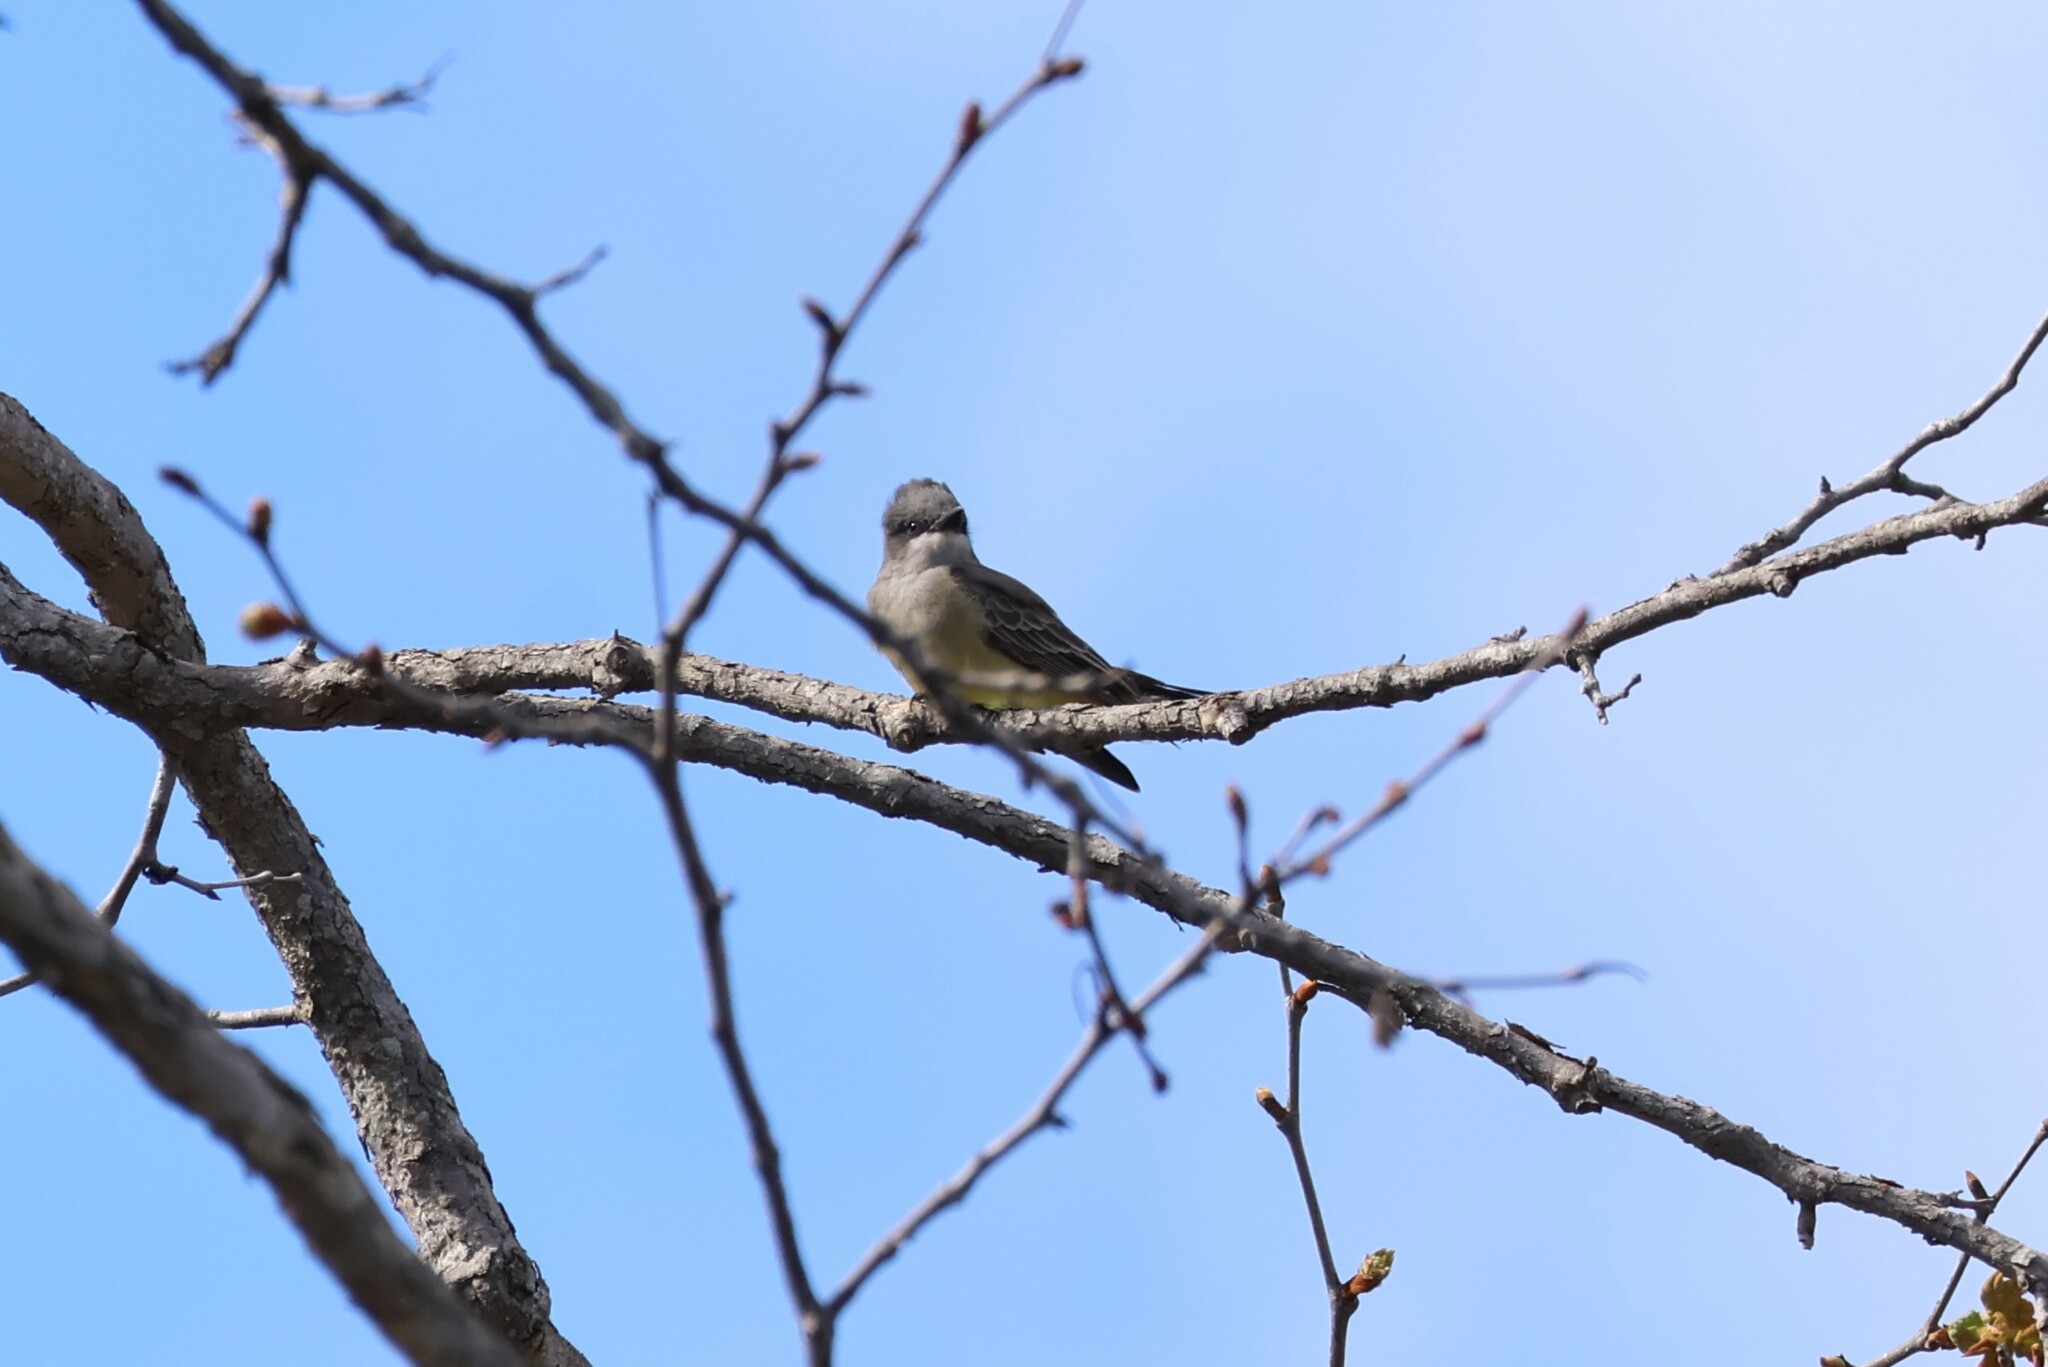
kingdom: Animalia
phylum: Chordata
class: Aves
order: Passeriformes
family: Tyrannidae
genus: Tyrannus
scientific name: Tyrannus vociferans
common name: Cassin's kingbird
